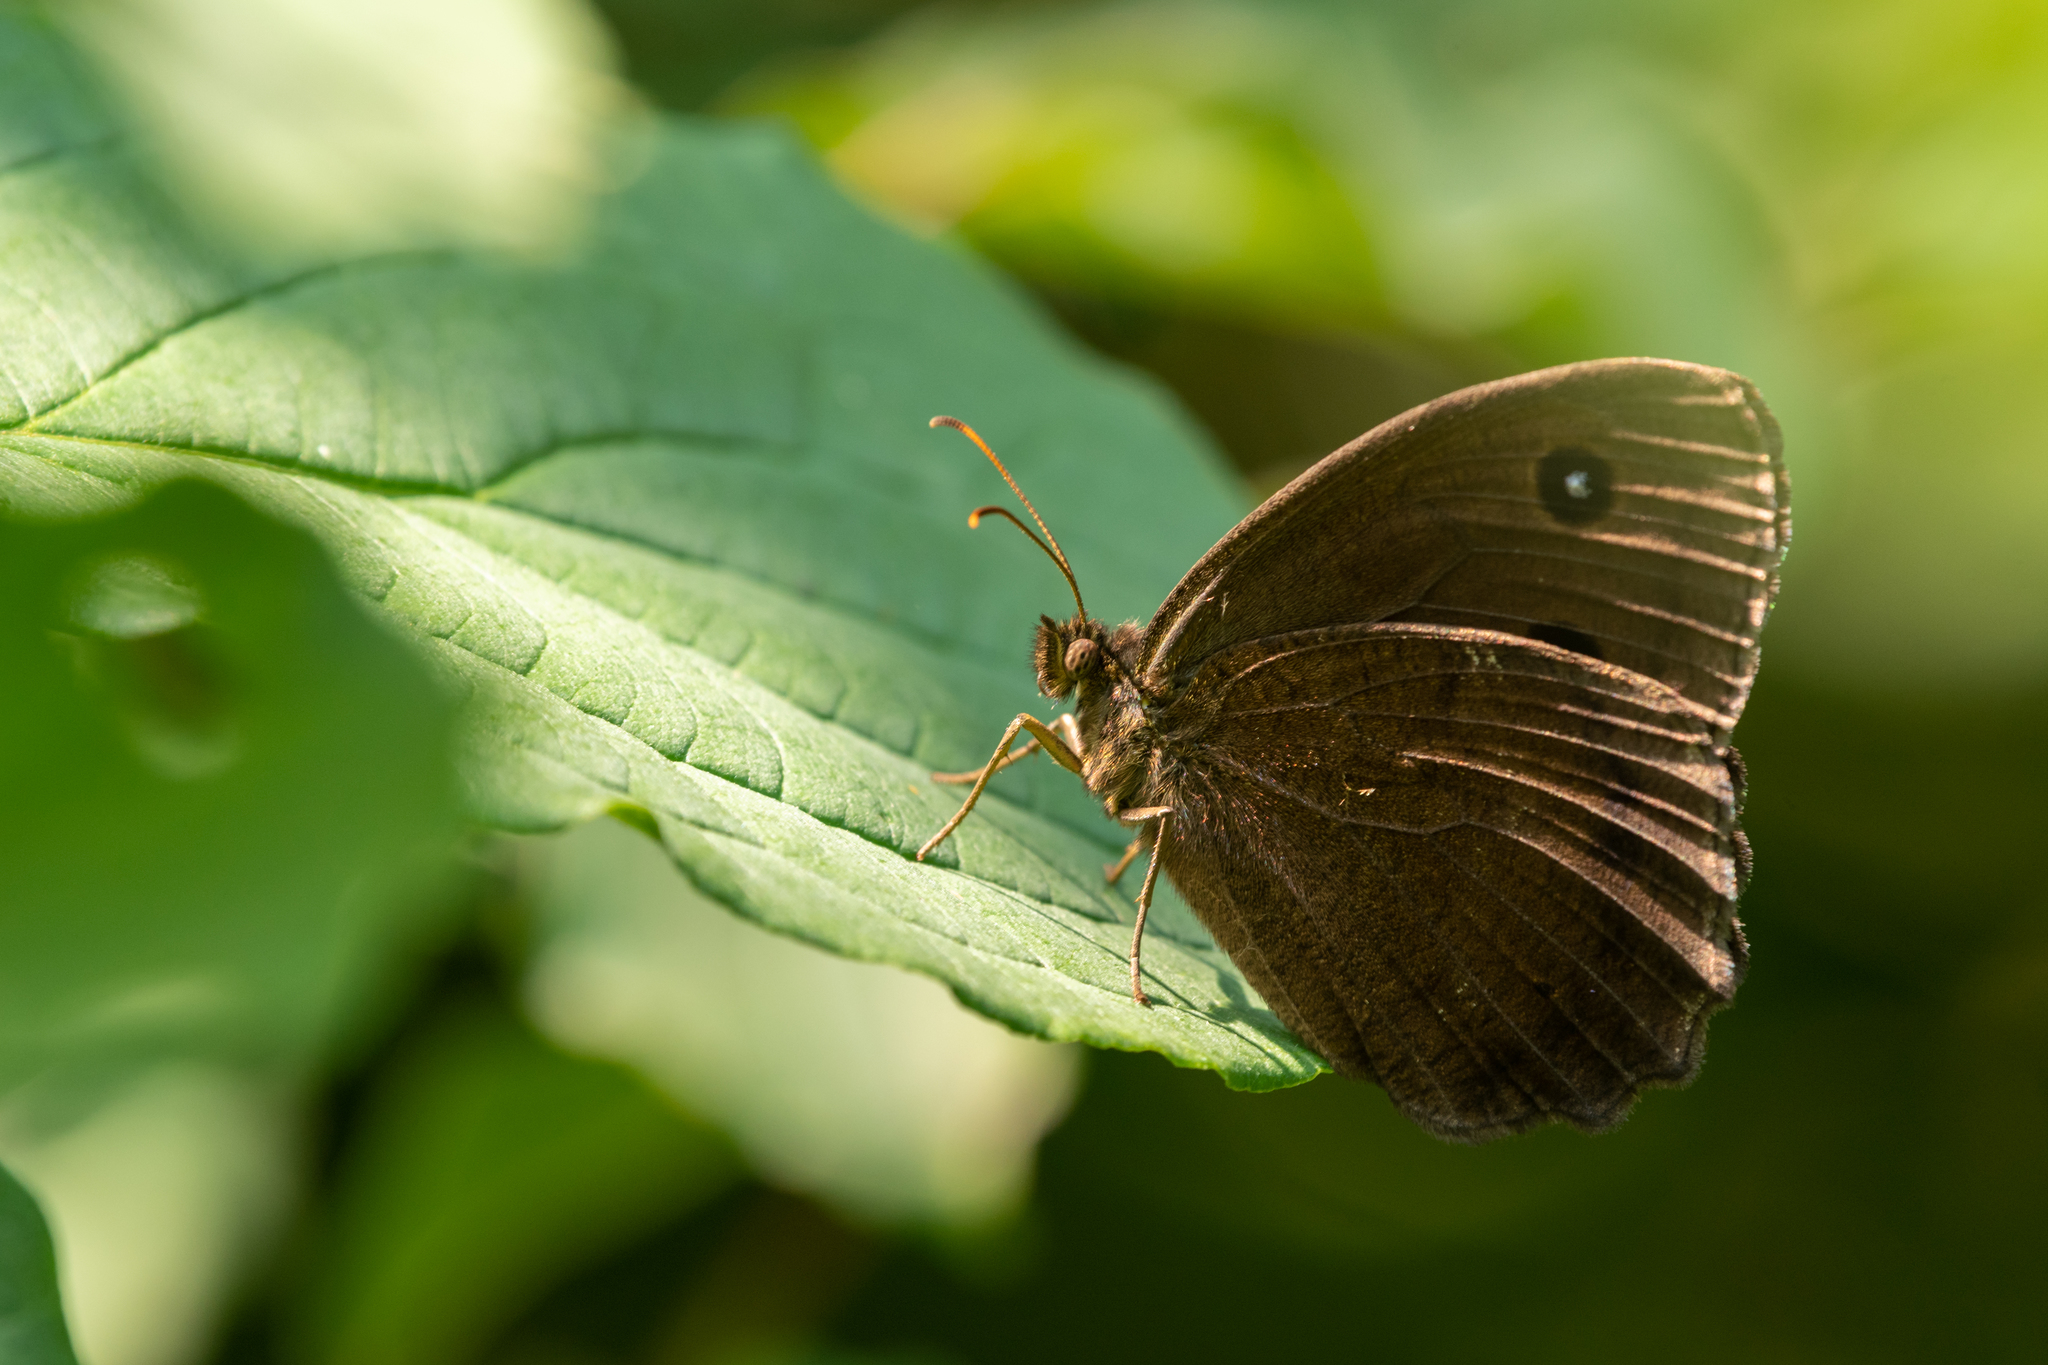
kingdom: Animalia
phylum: Arthropoda
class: Insecta
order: Lepidoptera
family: Nymphalidae
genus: Minois
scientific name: Minois dryas
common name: Dryad
